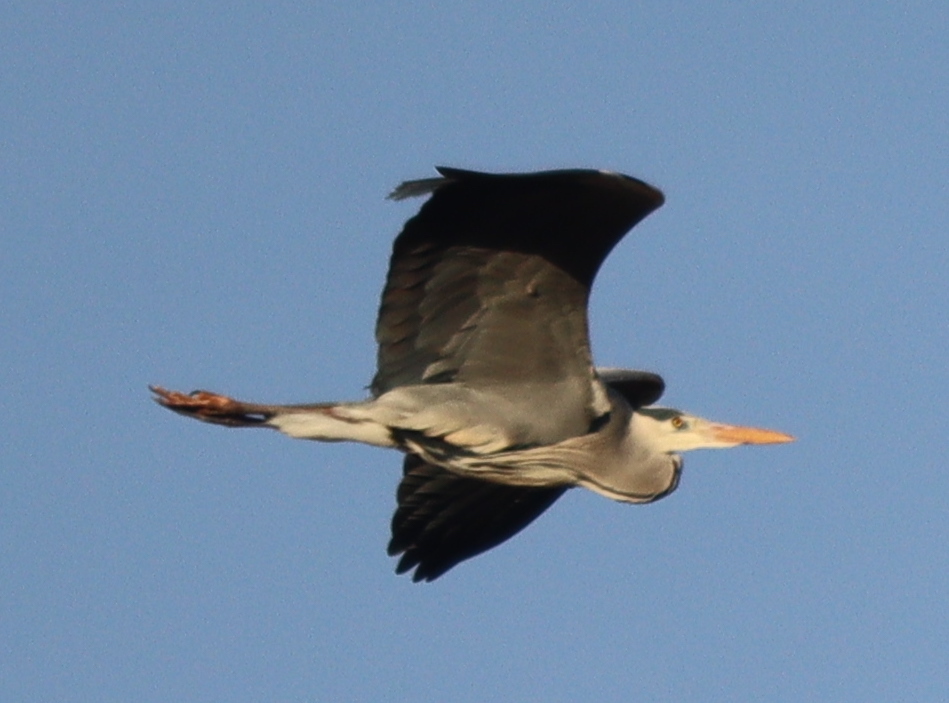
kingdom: Animalia
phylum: Chordata
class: Aves
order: Pelecaniformes
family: Ardeidae
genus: Ardea
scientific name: Ardea cinerea
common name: Grey heron
